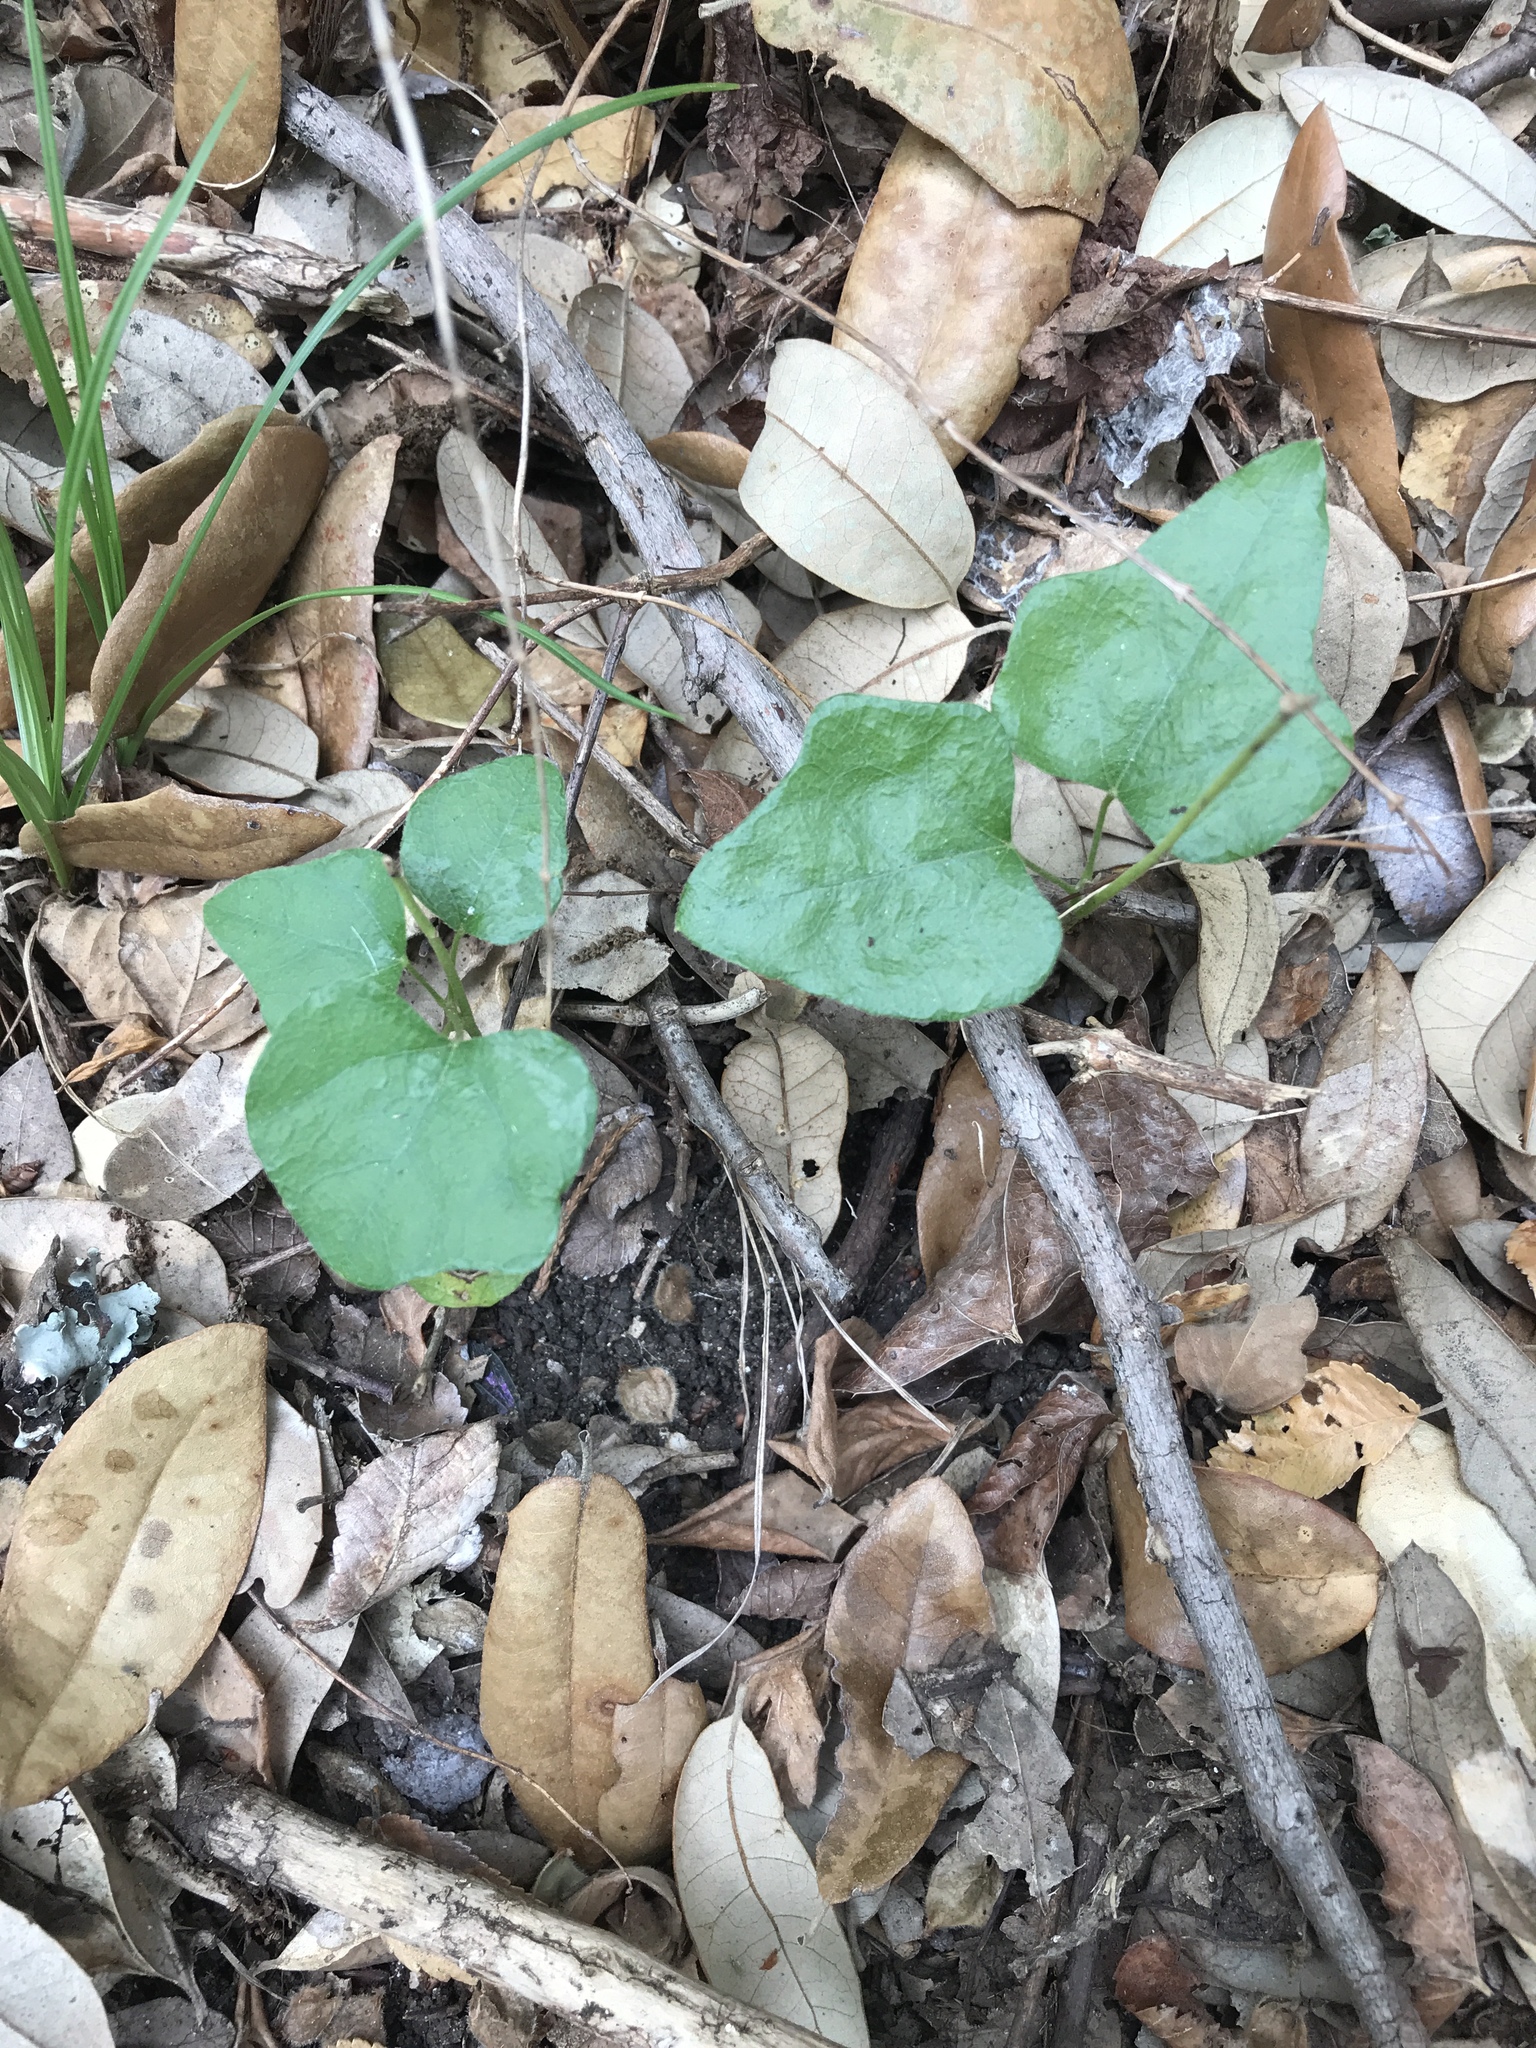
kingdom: Plantae
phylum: Tracheophyta
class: Magnoliopsida
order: Ranunculales
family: Menispermaceae
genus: Cocculus
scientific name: Cocculus carolinus
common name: Carolina moonseed
